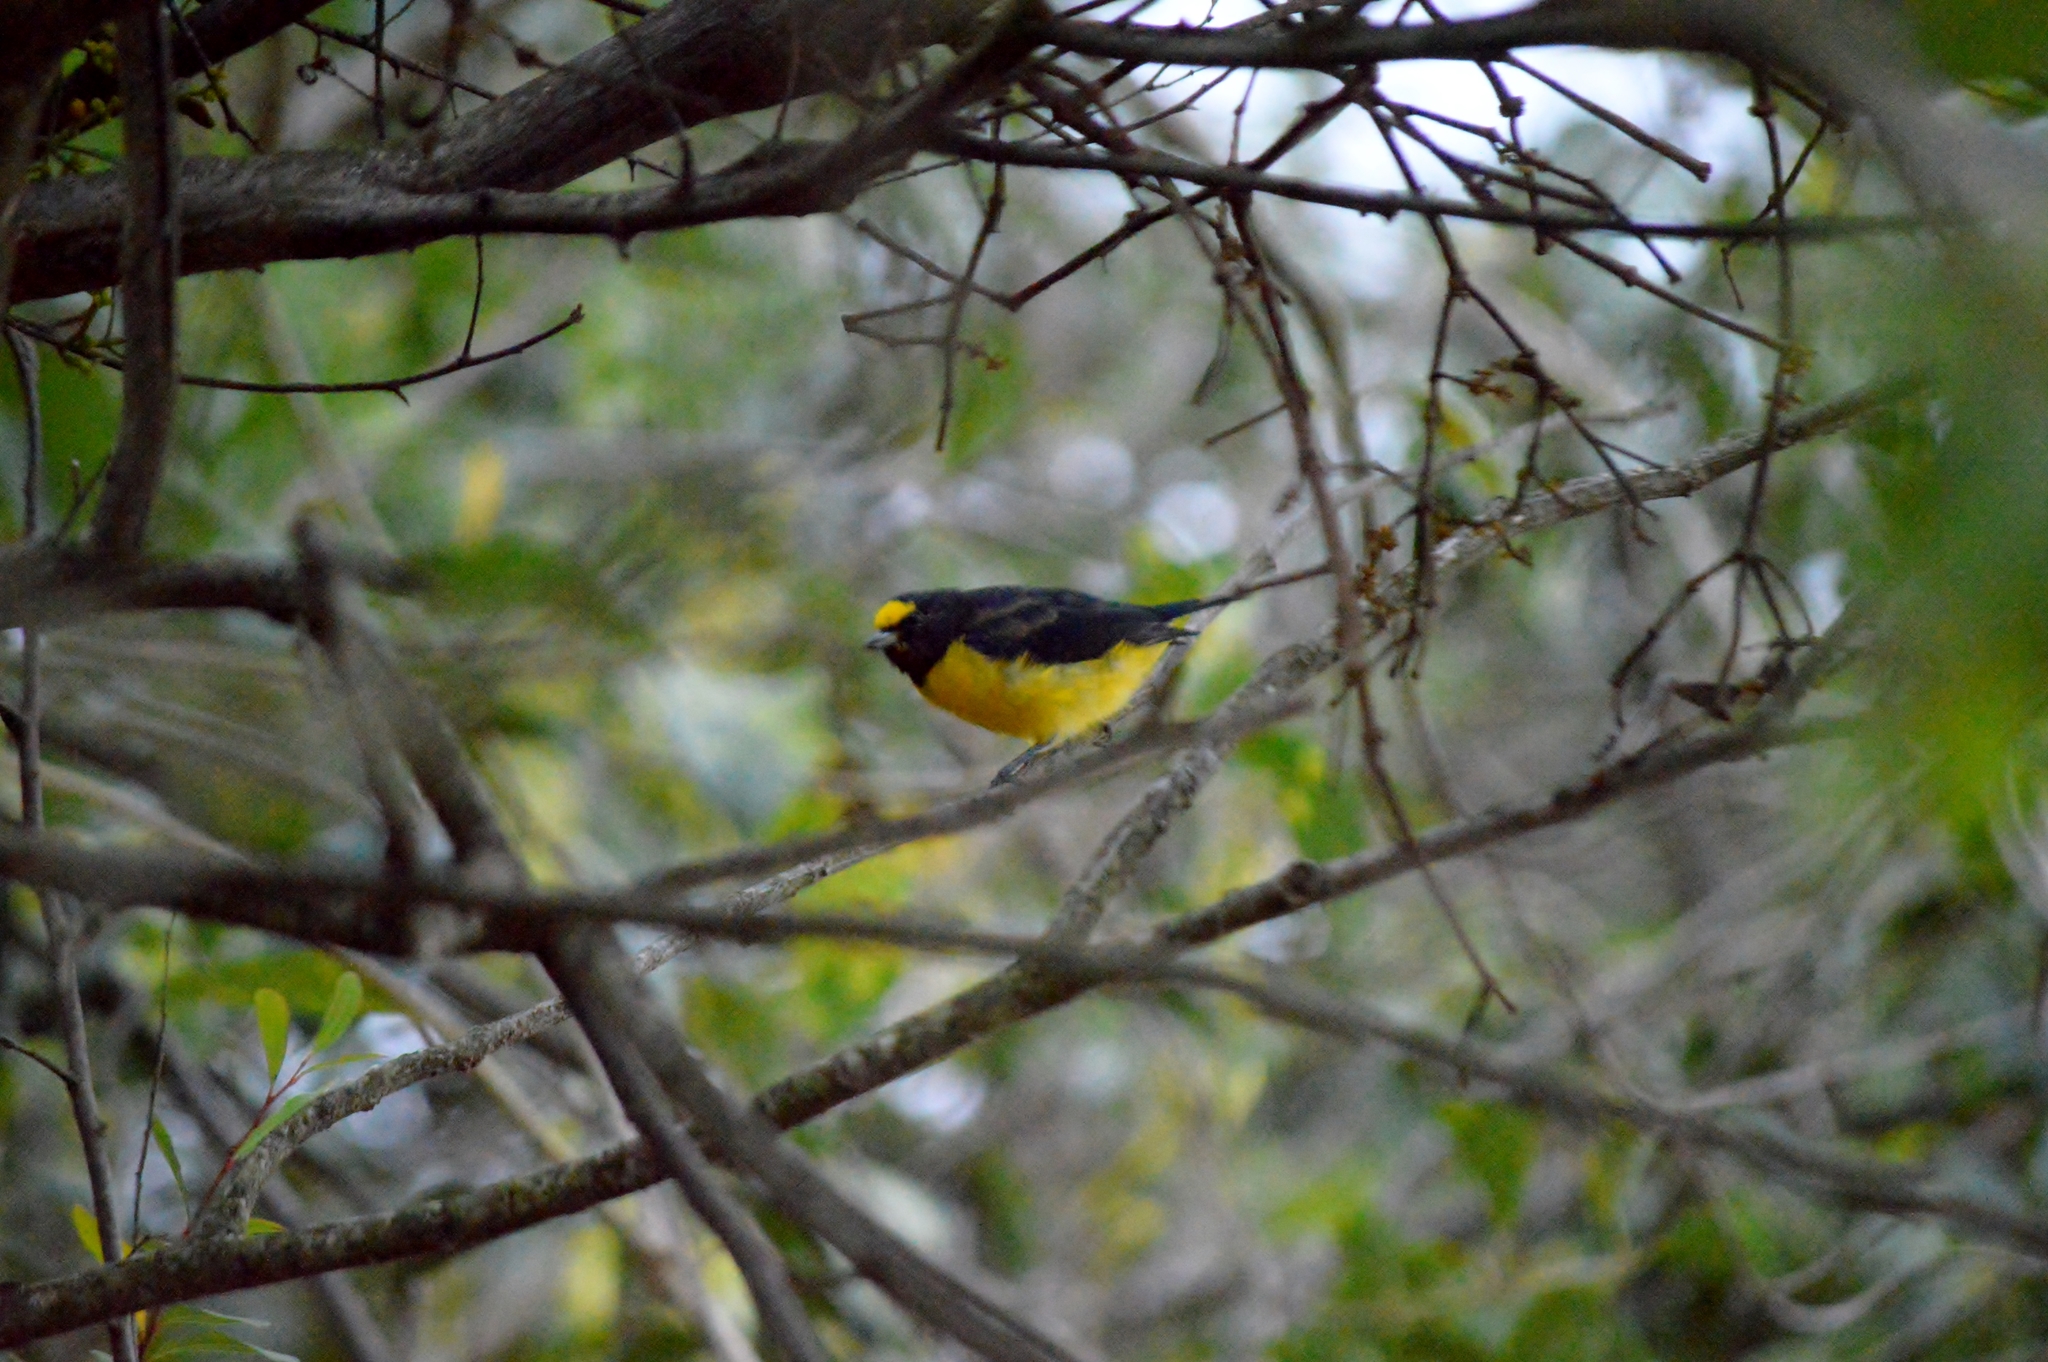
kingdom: Animalia
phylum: Chordata
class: Aves
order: Passeriformes
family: Fringillidae
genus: Euphonia
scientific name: Euphonia chlorotica
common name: Purple-throated euphonia
